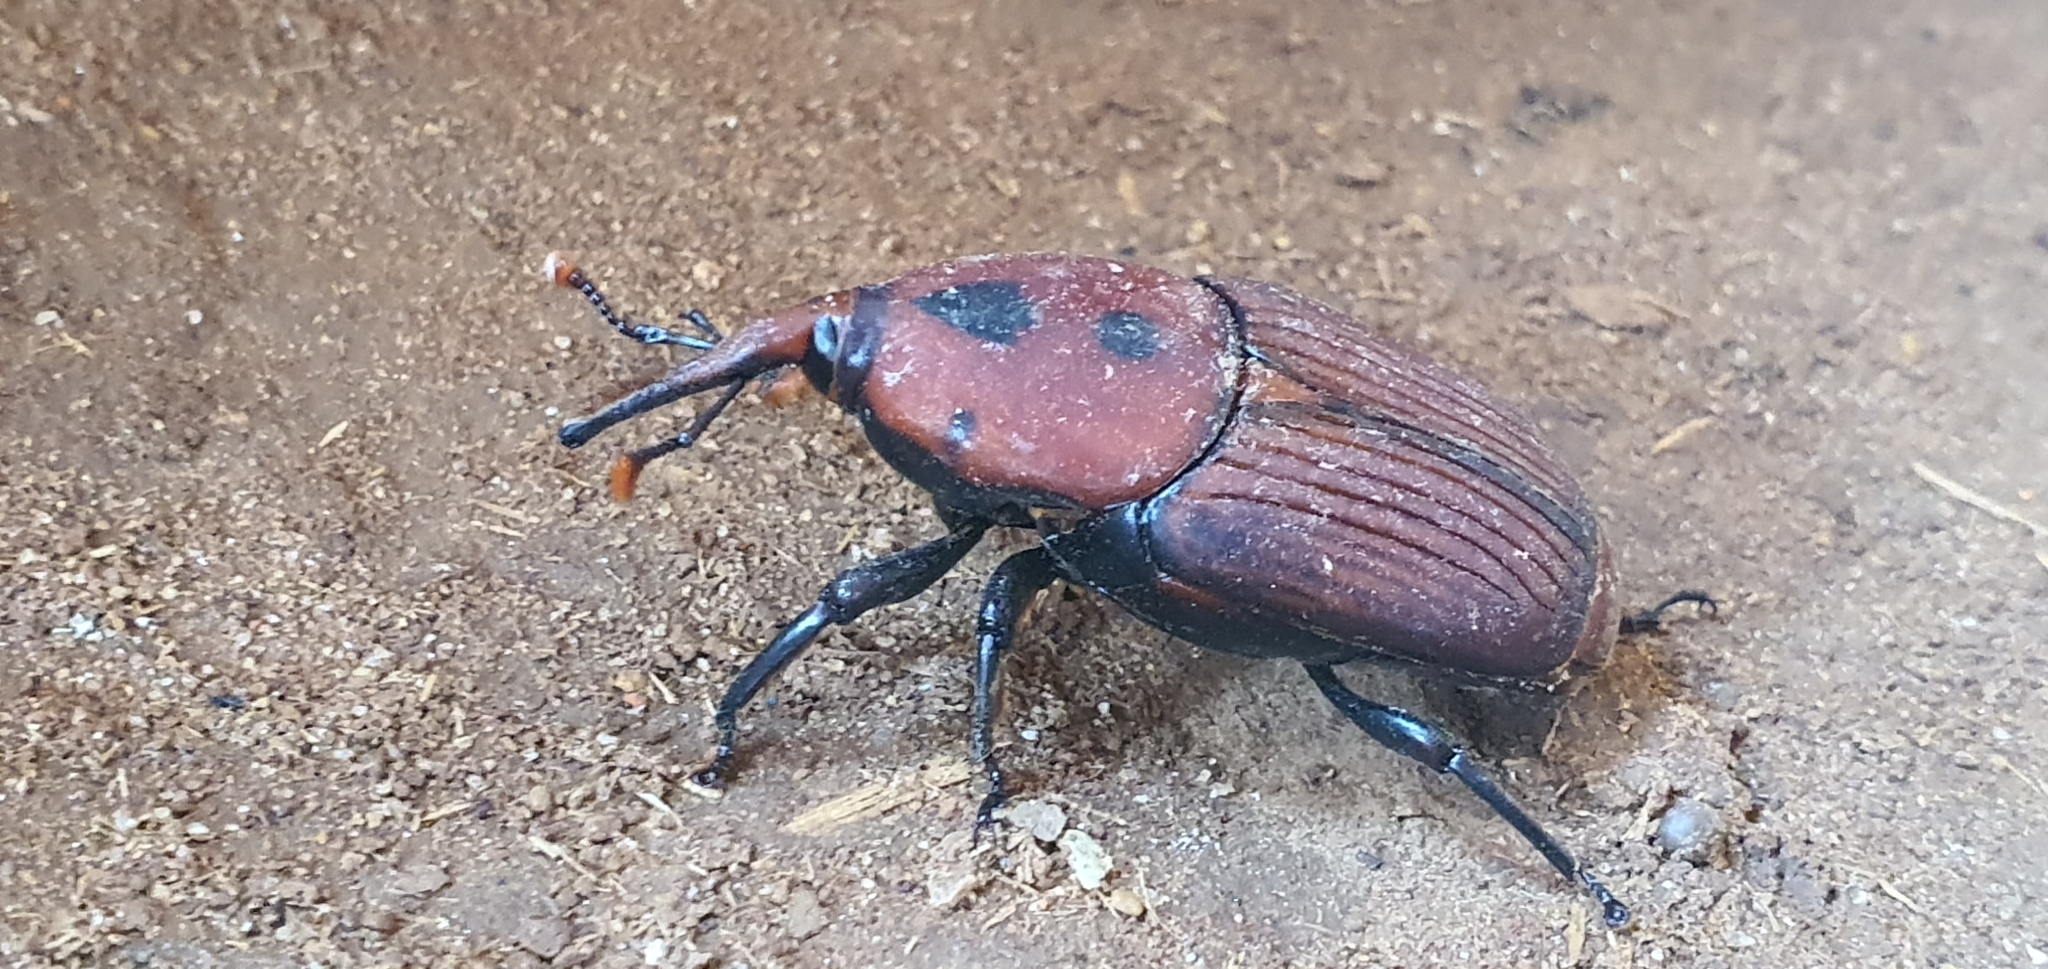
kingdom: Animalia
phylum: Arthropoda
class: Insecta
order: Coleoptera
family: Dryophthoridae
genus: Rhynchophorus
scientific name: Rhynchophorus ferrugineus
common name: Red palm weevil
